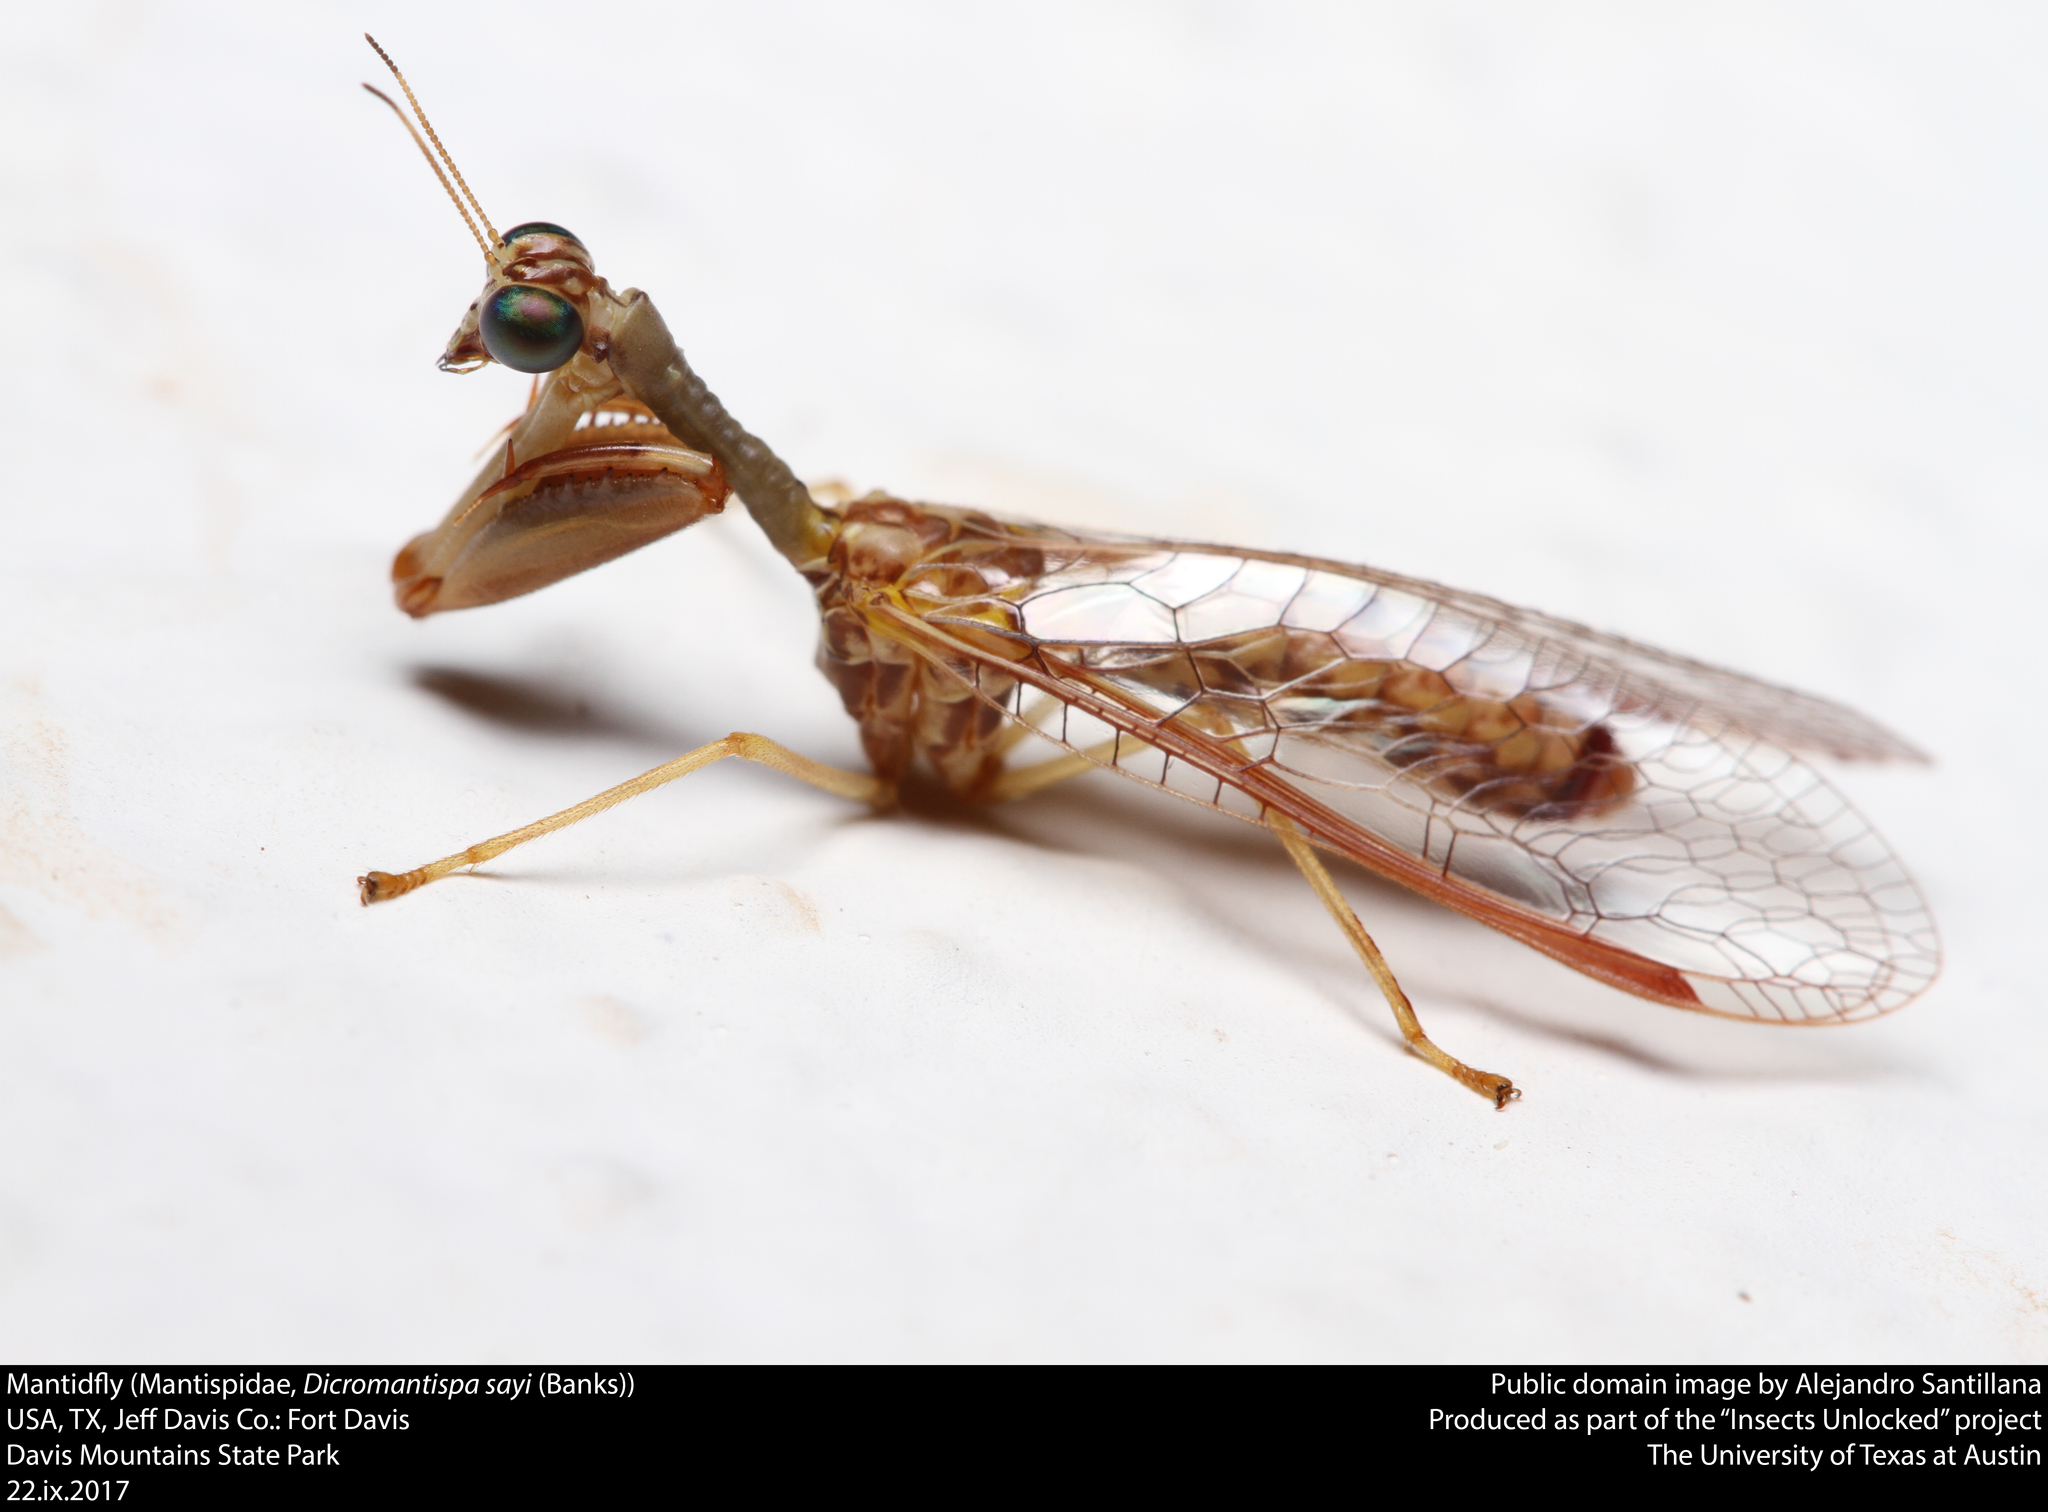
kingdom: Animalia
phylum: Arthropoda
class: Insecta
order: Neuroptera
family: Mantispidae
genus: Dicromantispa
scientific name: Dicromantispa sayi
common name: Say's mantidfly
